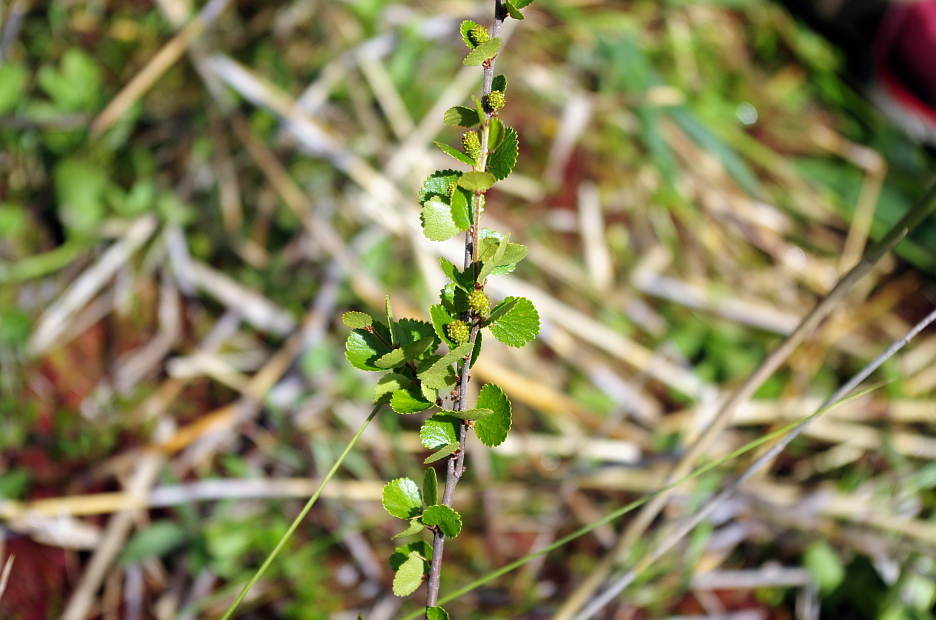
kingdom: Plantae
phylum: Tracheophyta
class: Magnoliopsida
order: Fagales
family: Betulaceae
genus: Betula
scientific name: Betula nana
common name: Arctic dwarf birch
